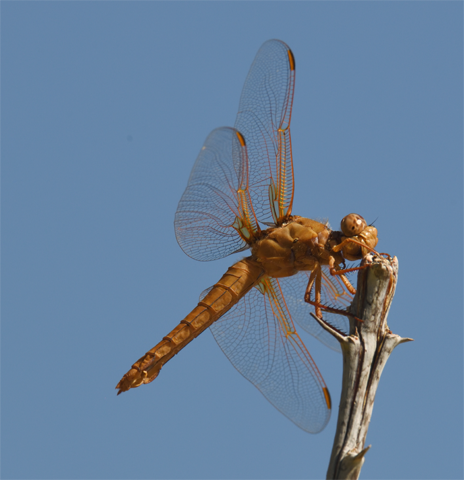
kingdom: Animalia
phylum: Arthropoda
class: Insecta
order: Odonata
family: Libellulidae
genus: Libellula
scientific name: Libellula saturata
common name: Flame skimmer
